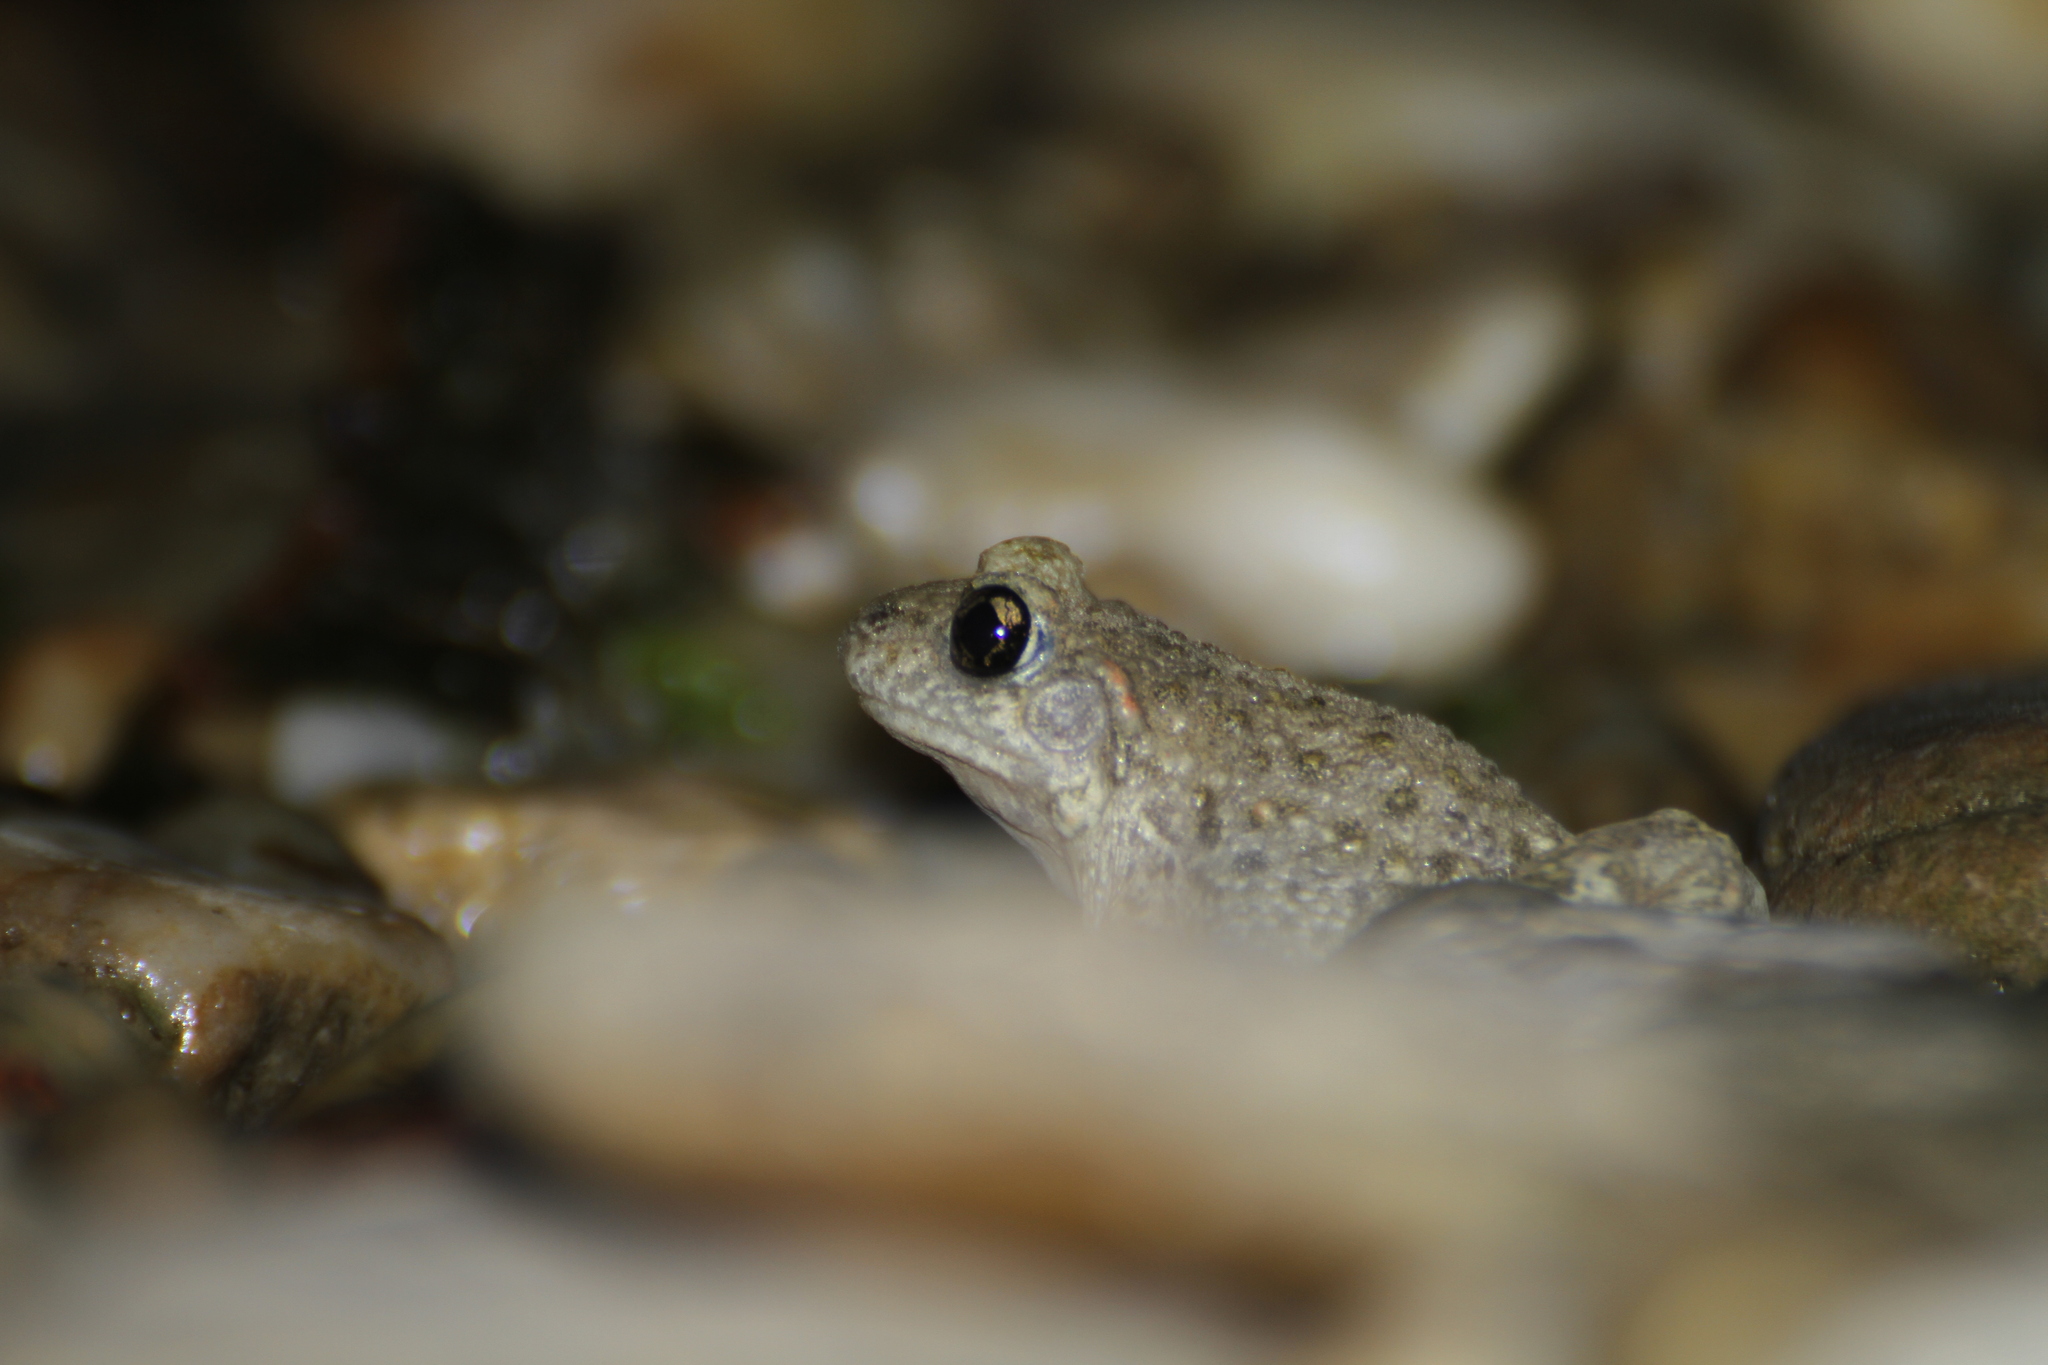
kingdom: Animalia
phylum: Chordata
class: Amphibia
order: Anura
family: Alytidae
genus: Alytes
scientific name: Alytes obstetricans
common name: Midwife toad
